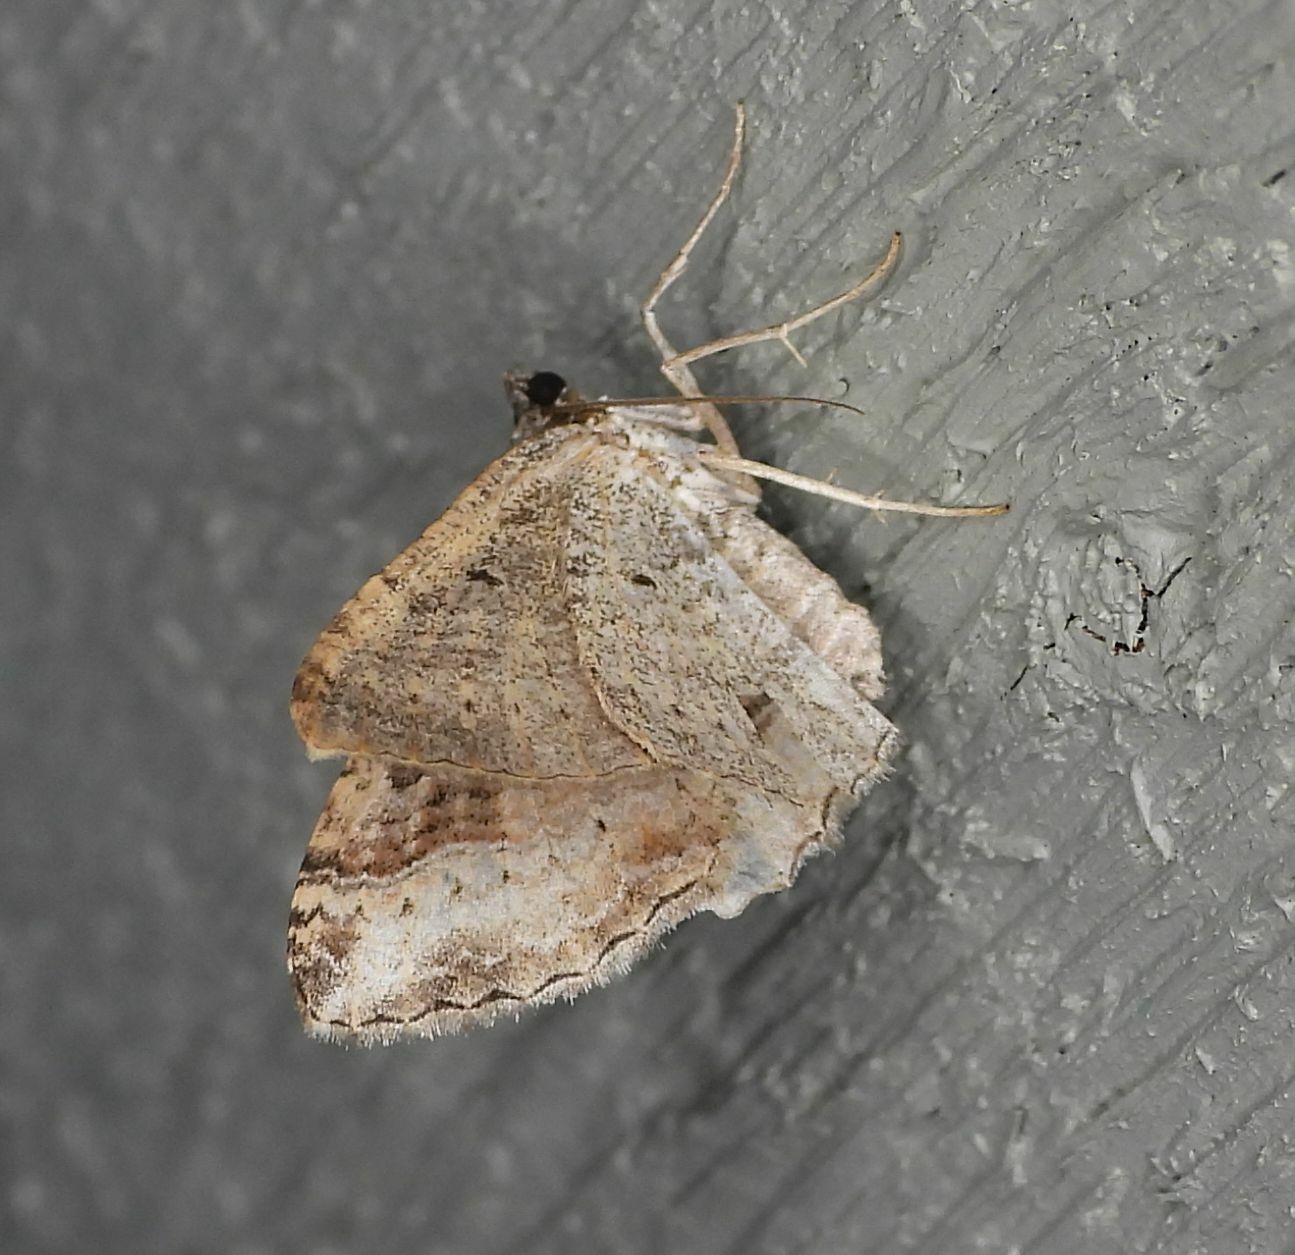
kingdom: Animalia
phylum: Arthropoda
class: Insecta
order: Lepidoptera
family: Geometridae
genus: Costaconvexa
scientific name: Costaconvexa centrostrigaria
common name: Bent-line carpet
